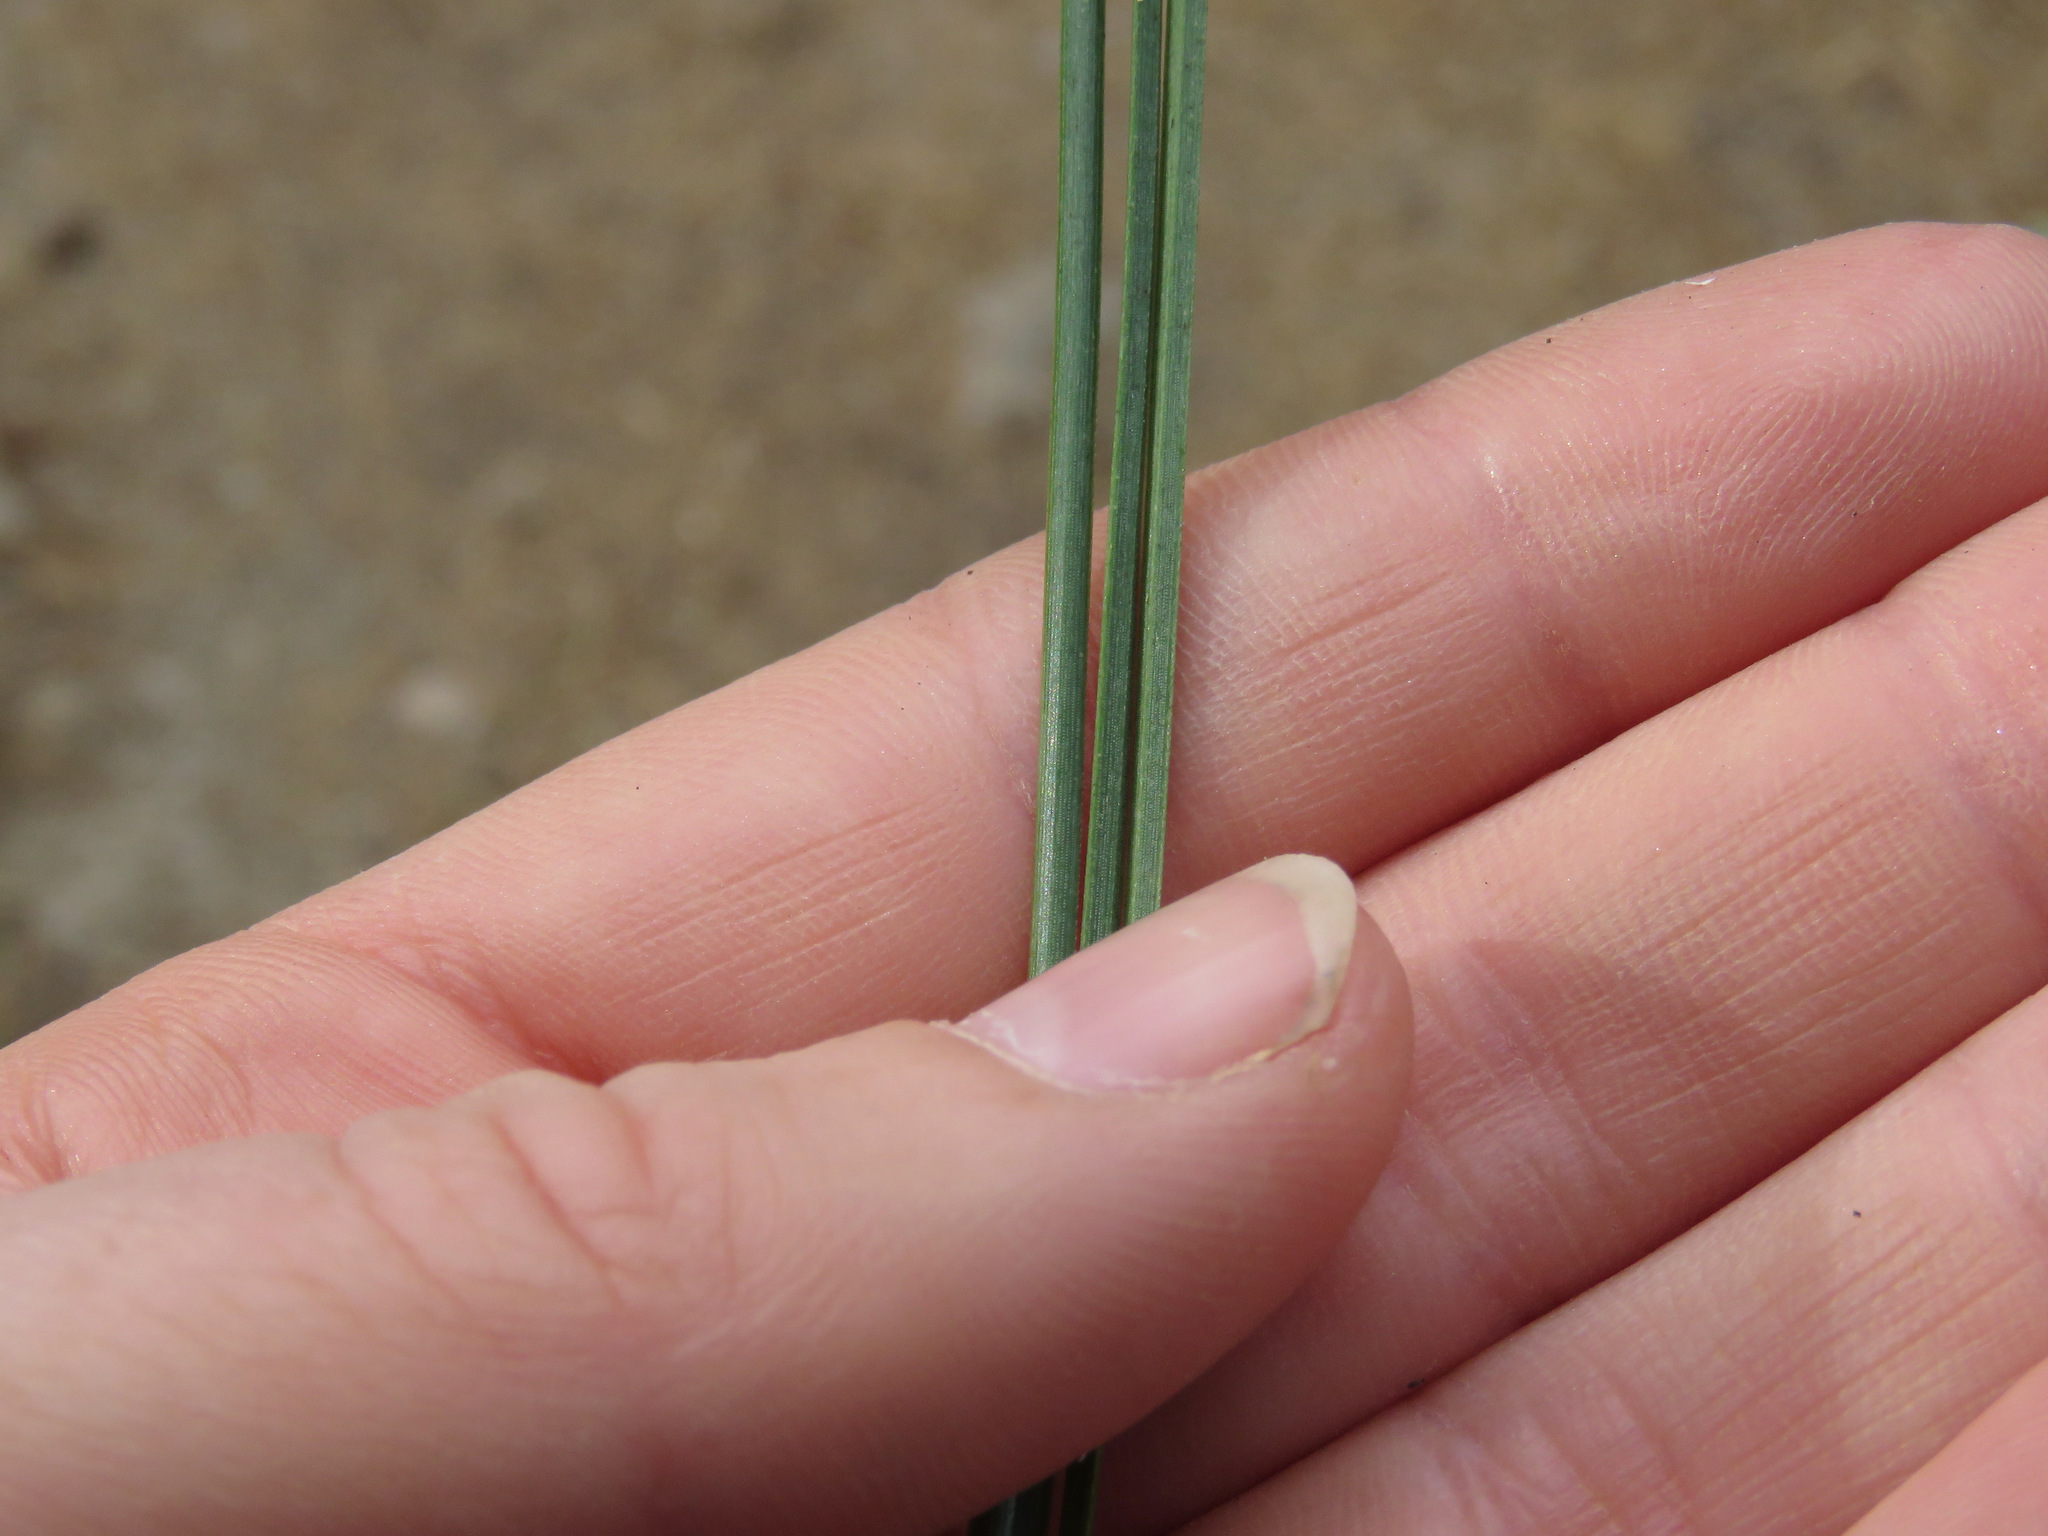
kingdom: Plantae
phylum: Tracheophyta
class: Pinopsida
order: Pinales
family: Pinaceae
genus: Pinus
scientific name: Pinus ponderosa
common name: Western yellow-pine
